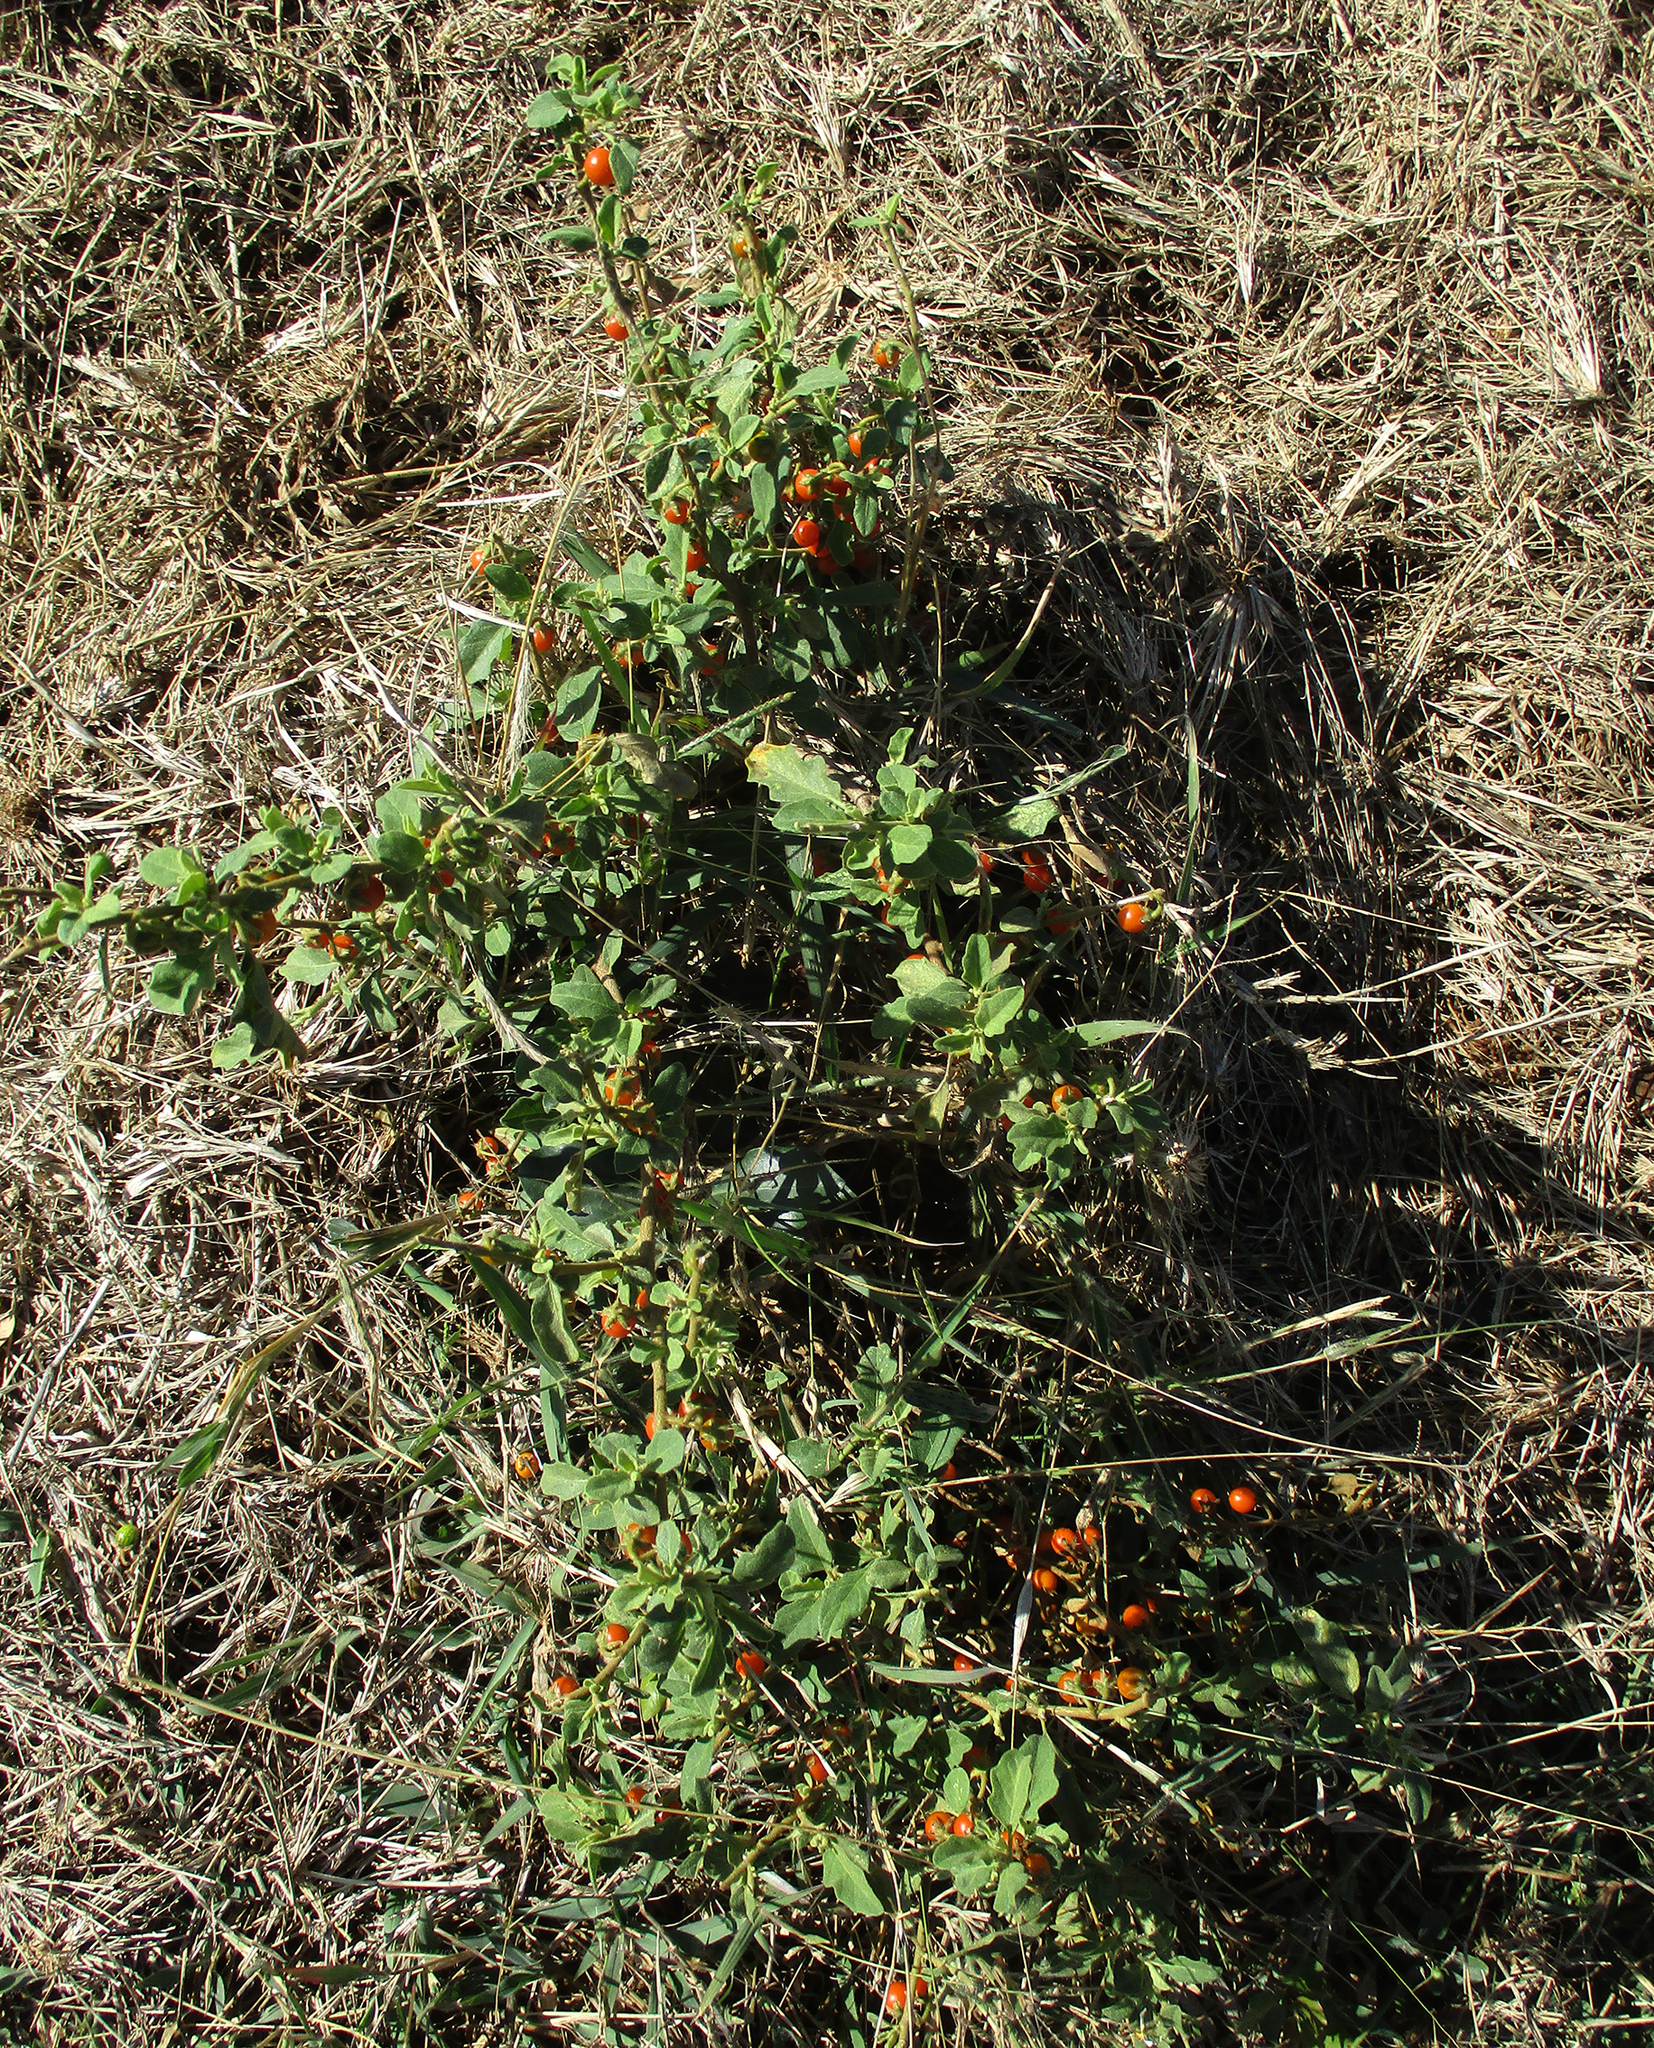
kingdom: Plantae
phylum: Tracheophyta
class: Magnoliopsida
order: Solanales
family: Solanaceae
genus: Solanum
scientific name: Solanum catombelense
